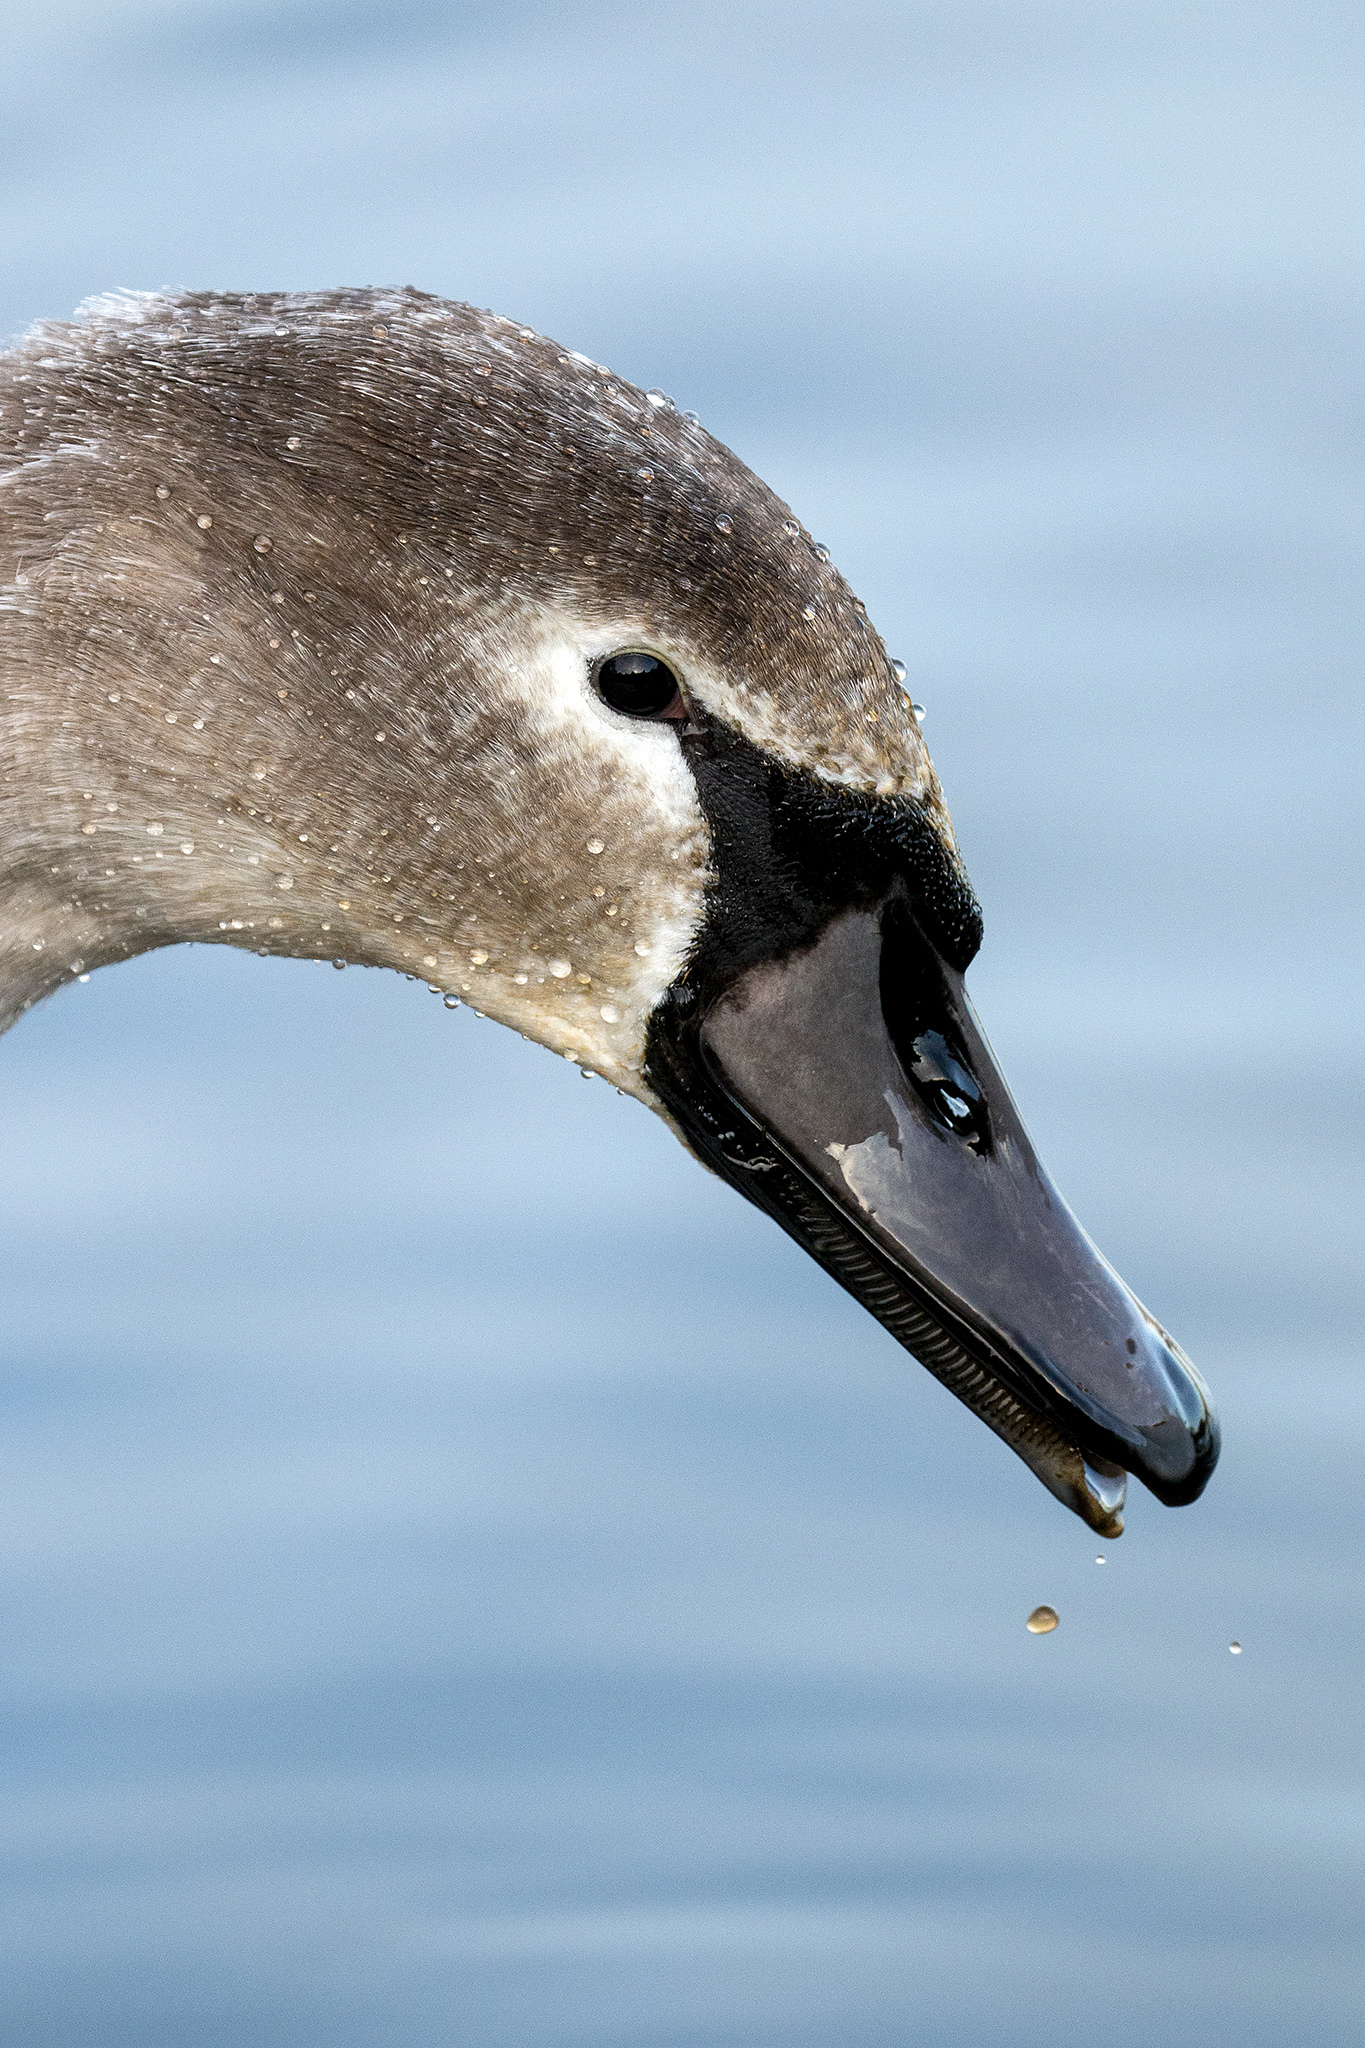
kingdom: Animalia
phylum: Chordata
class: Aves
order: Anseriformes
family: Anatidae
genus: Cygnus
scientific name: Cygnus olor
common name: Mute swan
